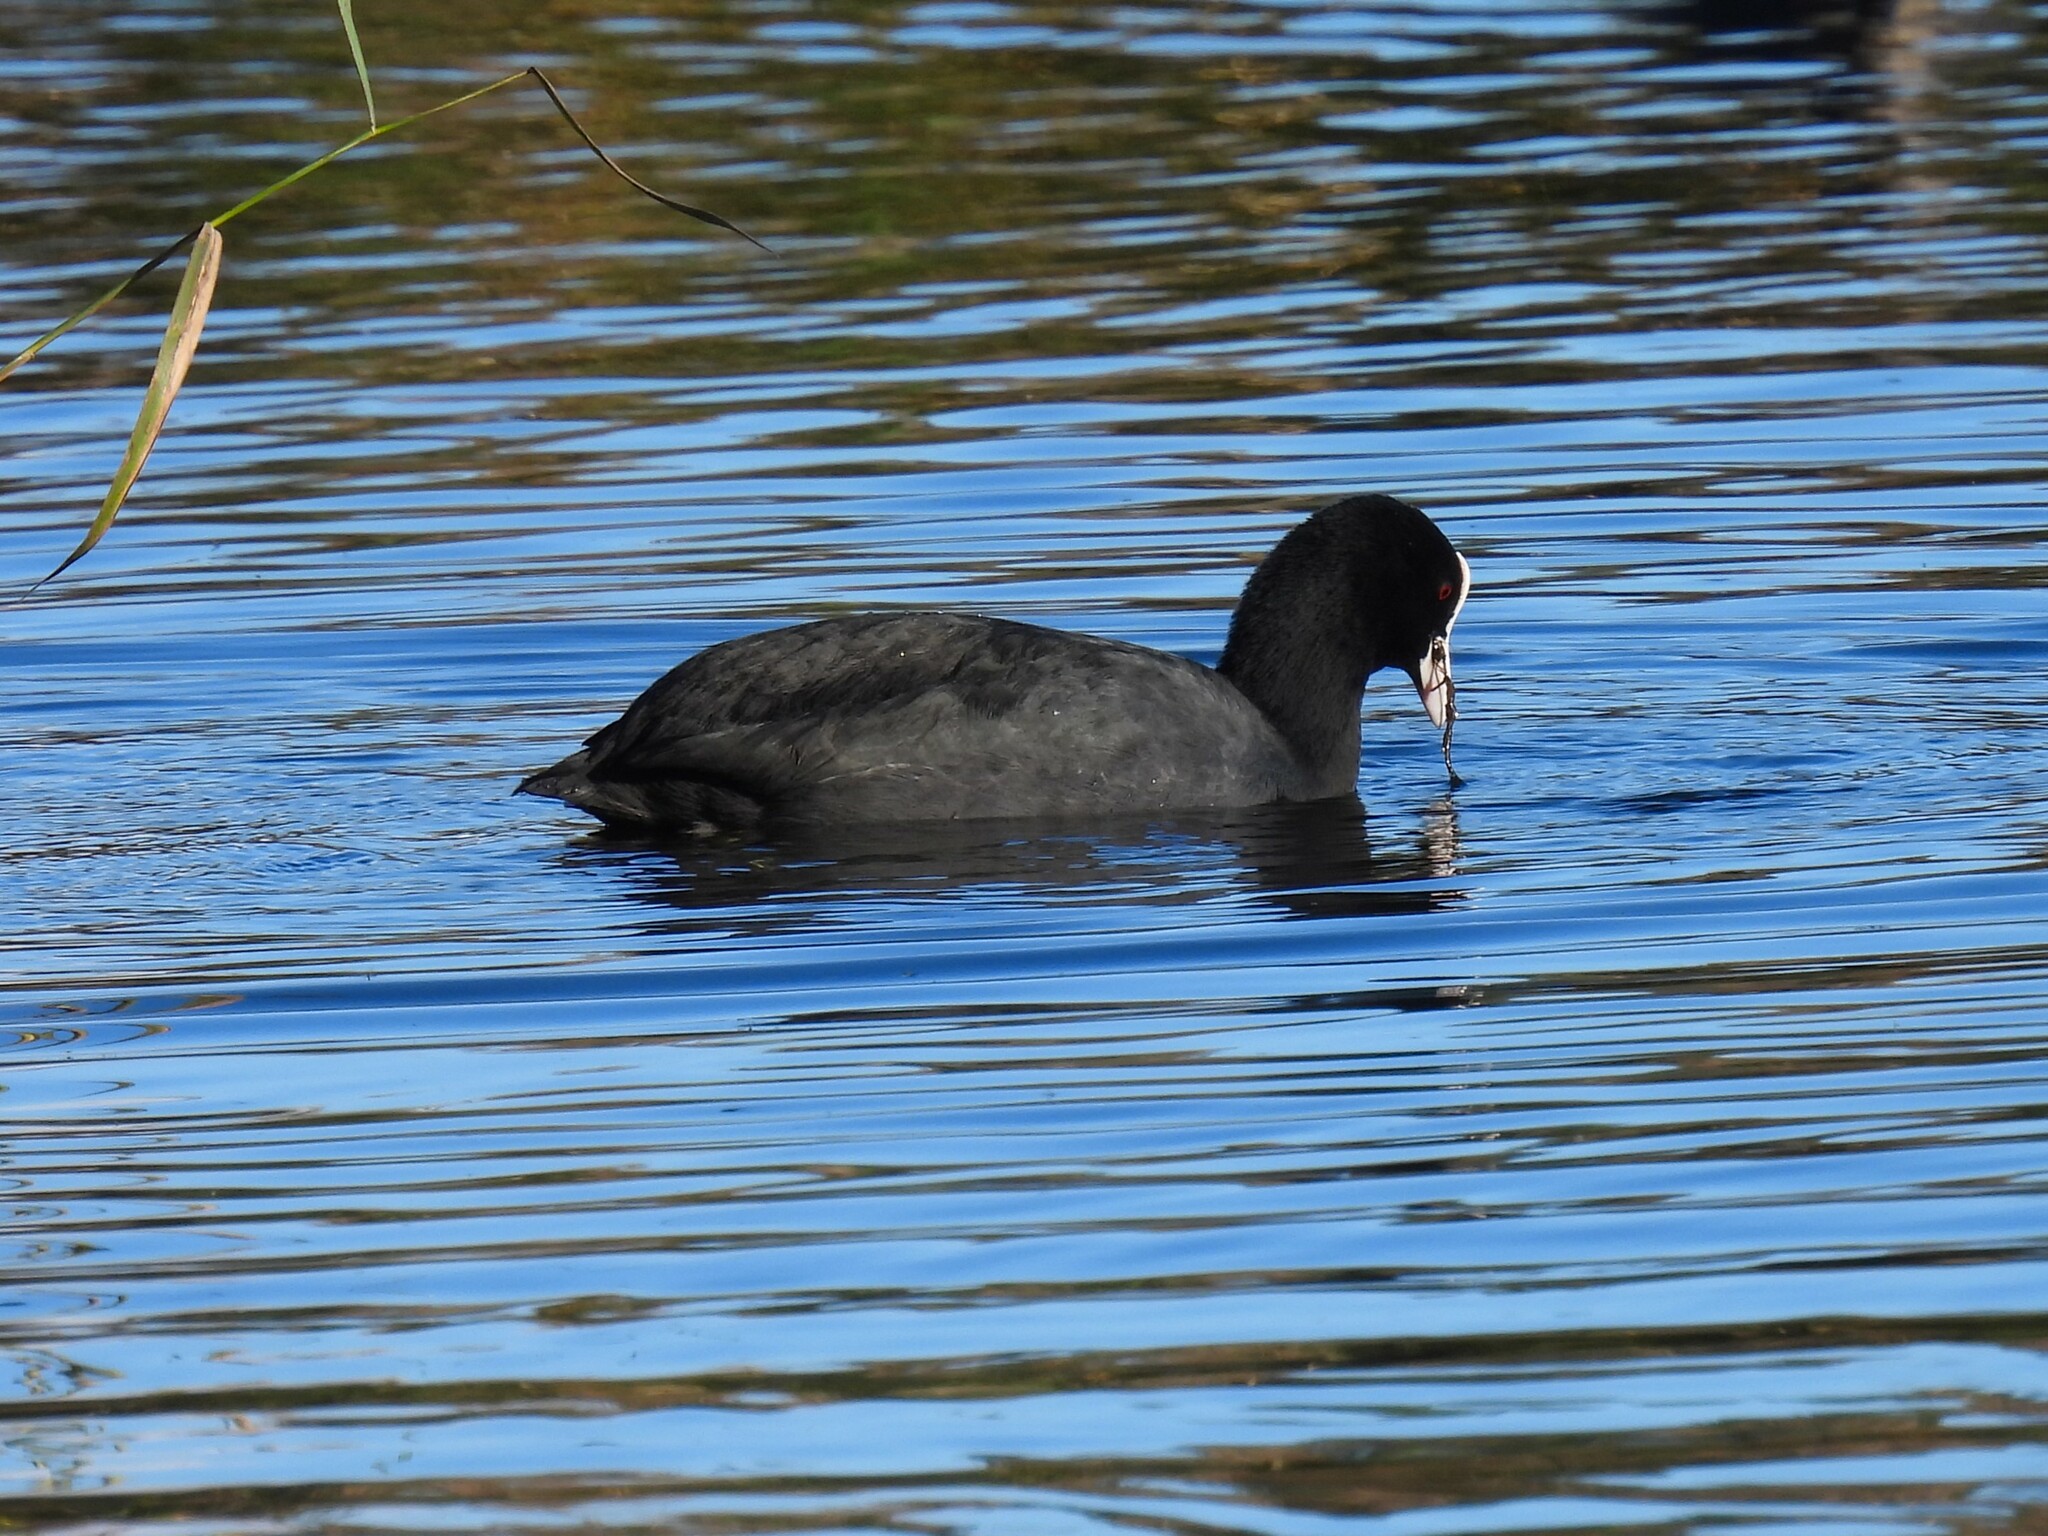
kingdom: Animalia
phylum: Chordata
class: Aves
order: Gruiformes
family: Rallidae
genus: Fulica
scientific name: Fulica atra
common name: Eurasian coot
